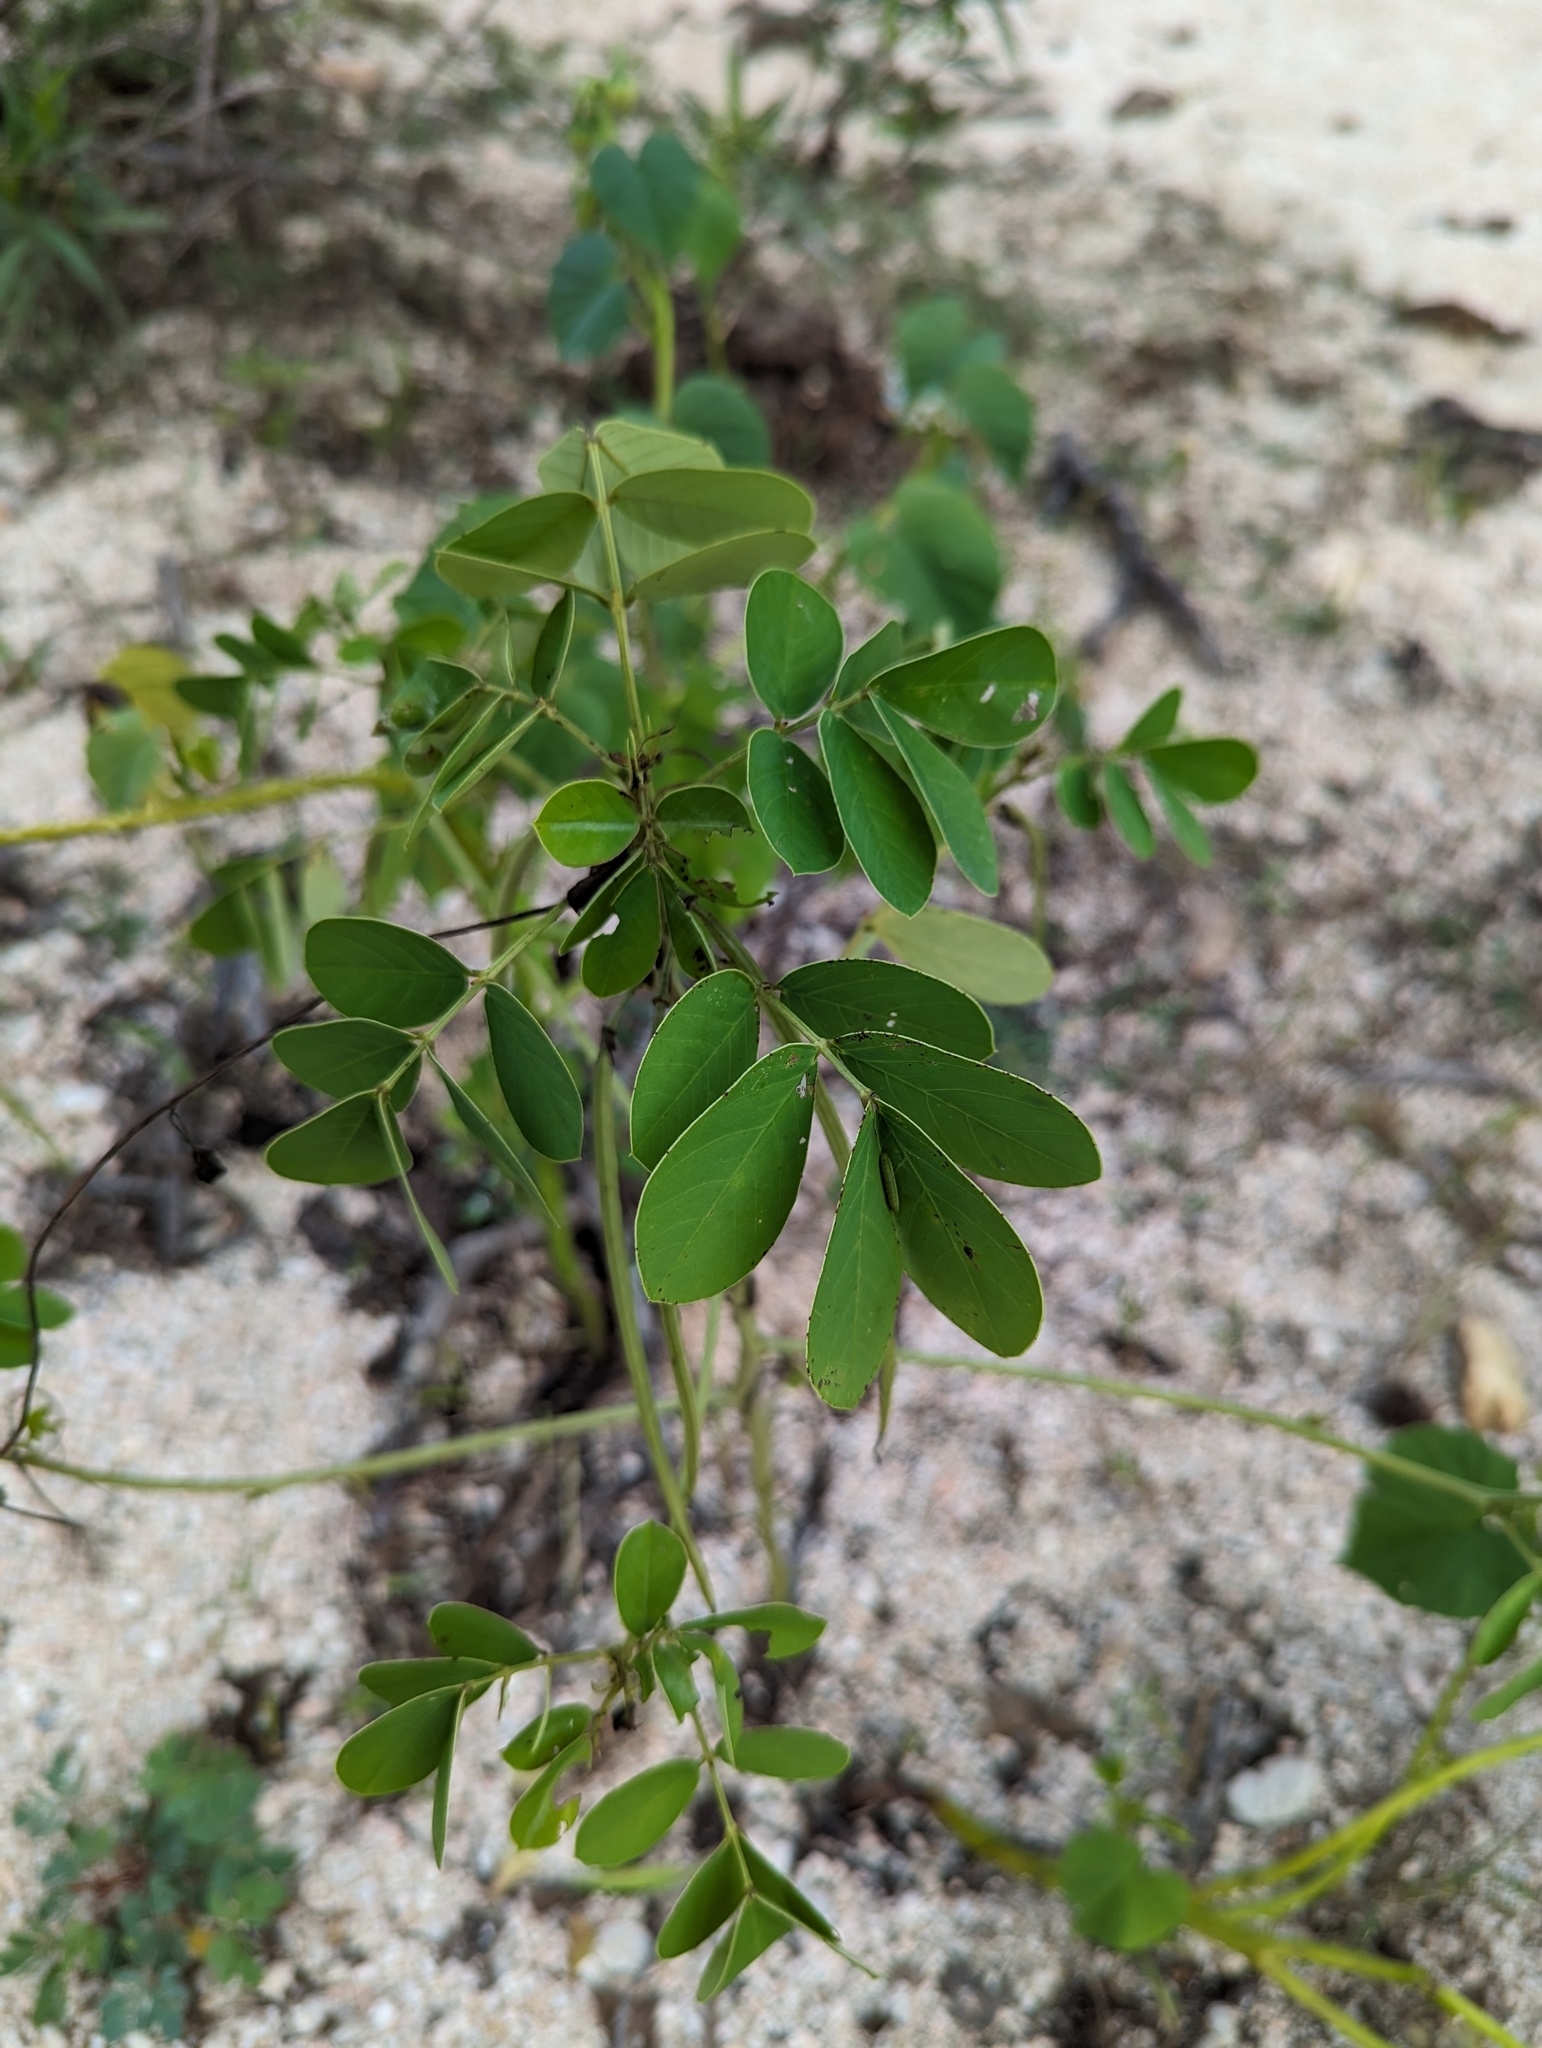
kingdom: Plantae
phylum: Tracheophyta
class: Magnoliopsida
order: Fabales
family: Fabaceae
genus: Senna
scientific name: Senna obtusifolia
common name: Java-bean
